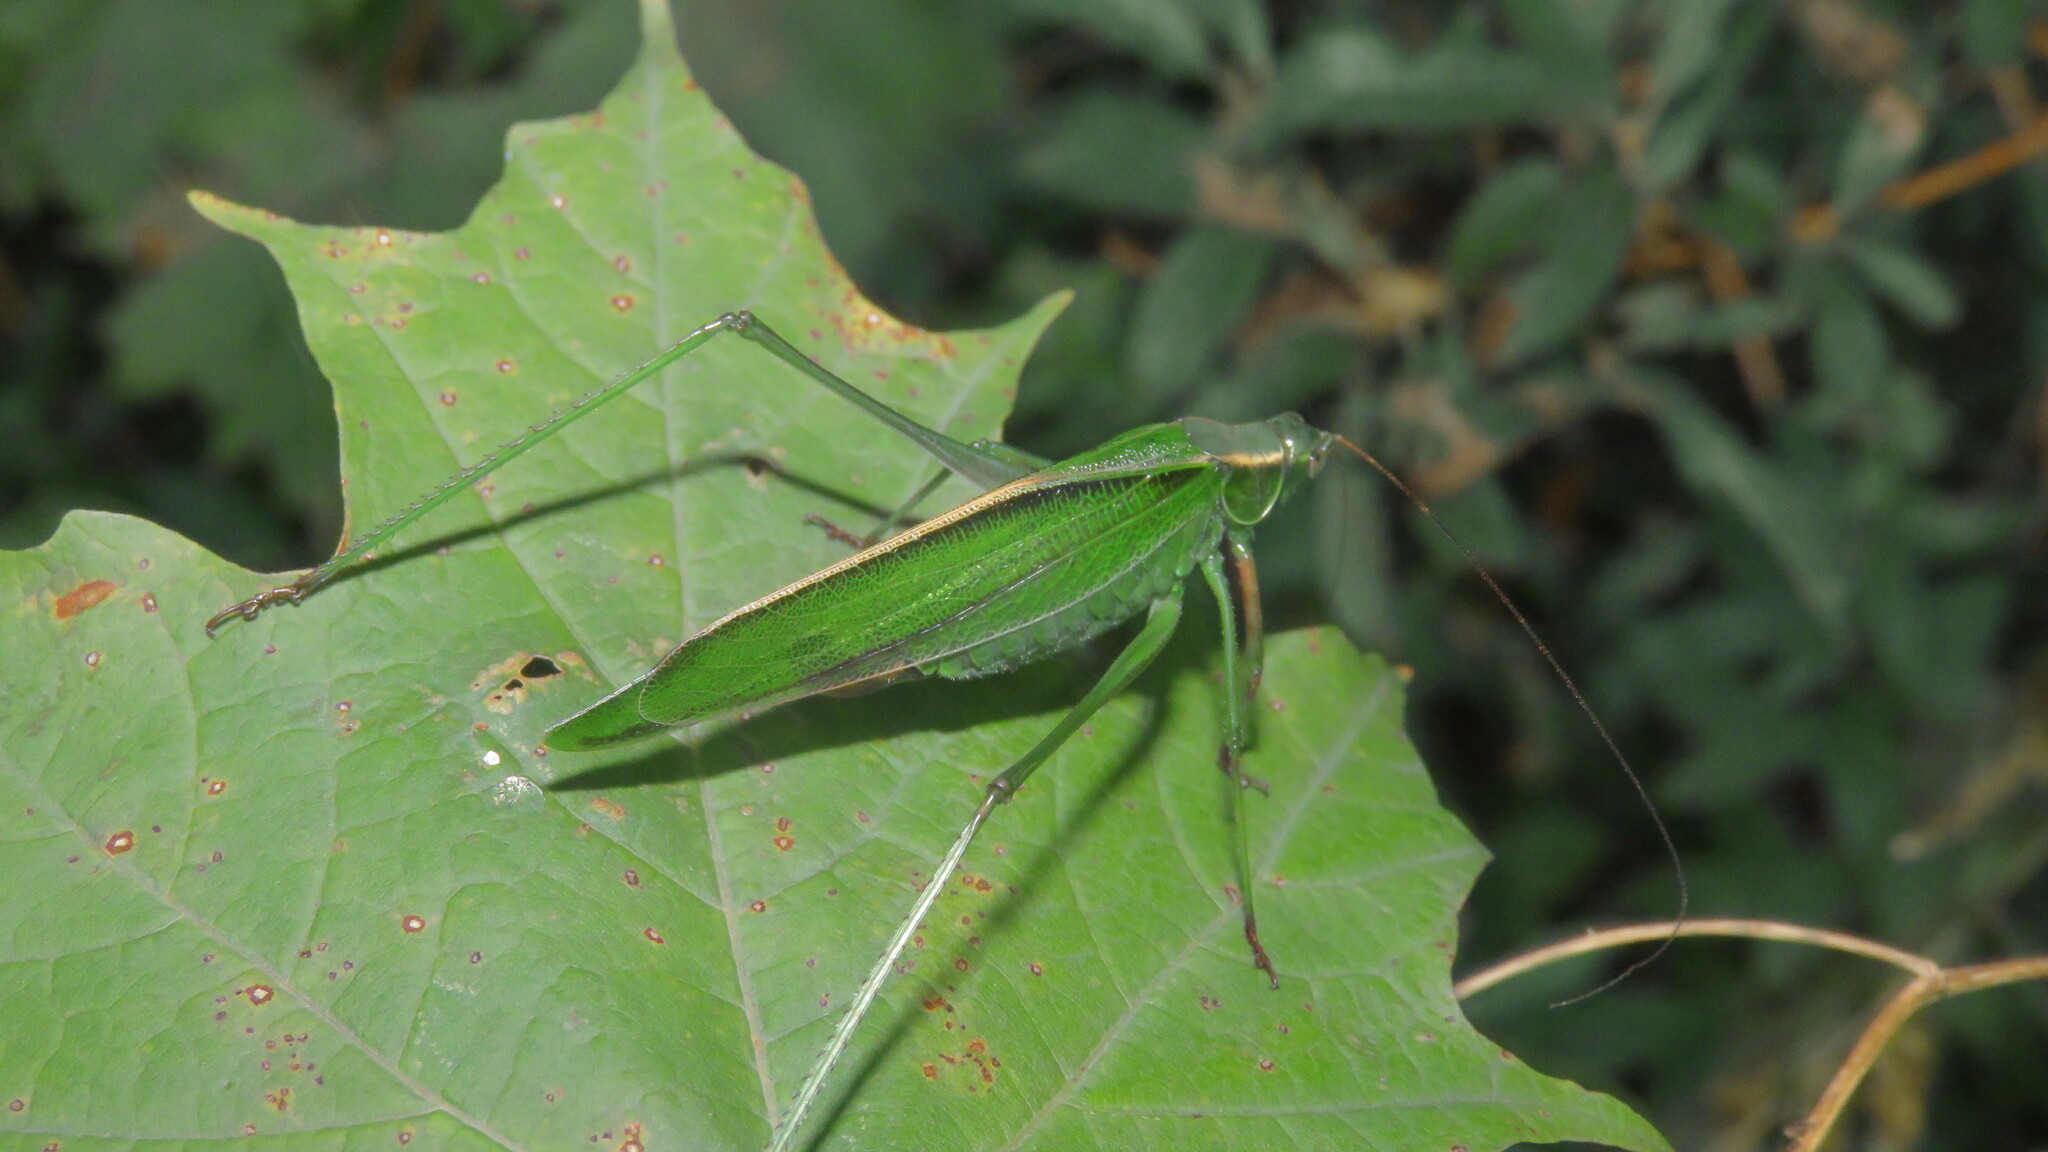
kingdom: Animalia
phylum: Arthropoda
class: Insecta
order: Orthoptera
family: Tettigoniidae
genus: Scudderia
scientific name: Scudderia fasciata
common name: Treetop bush katydid
